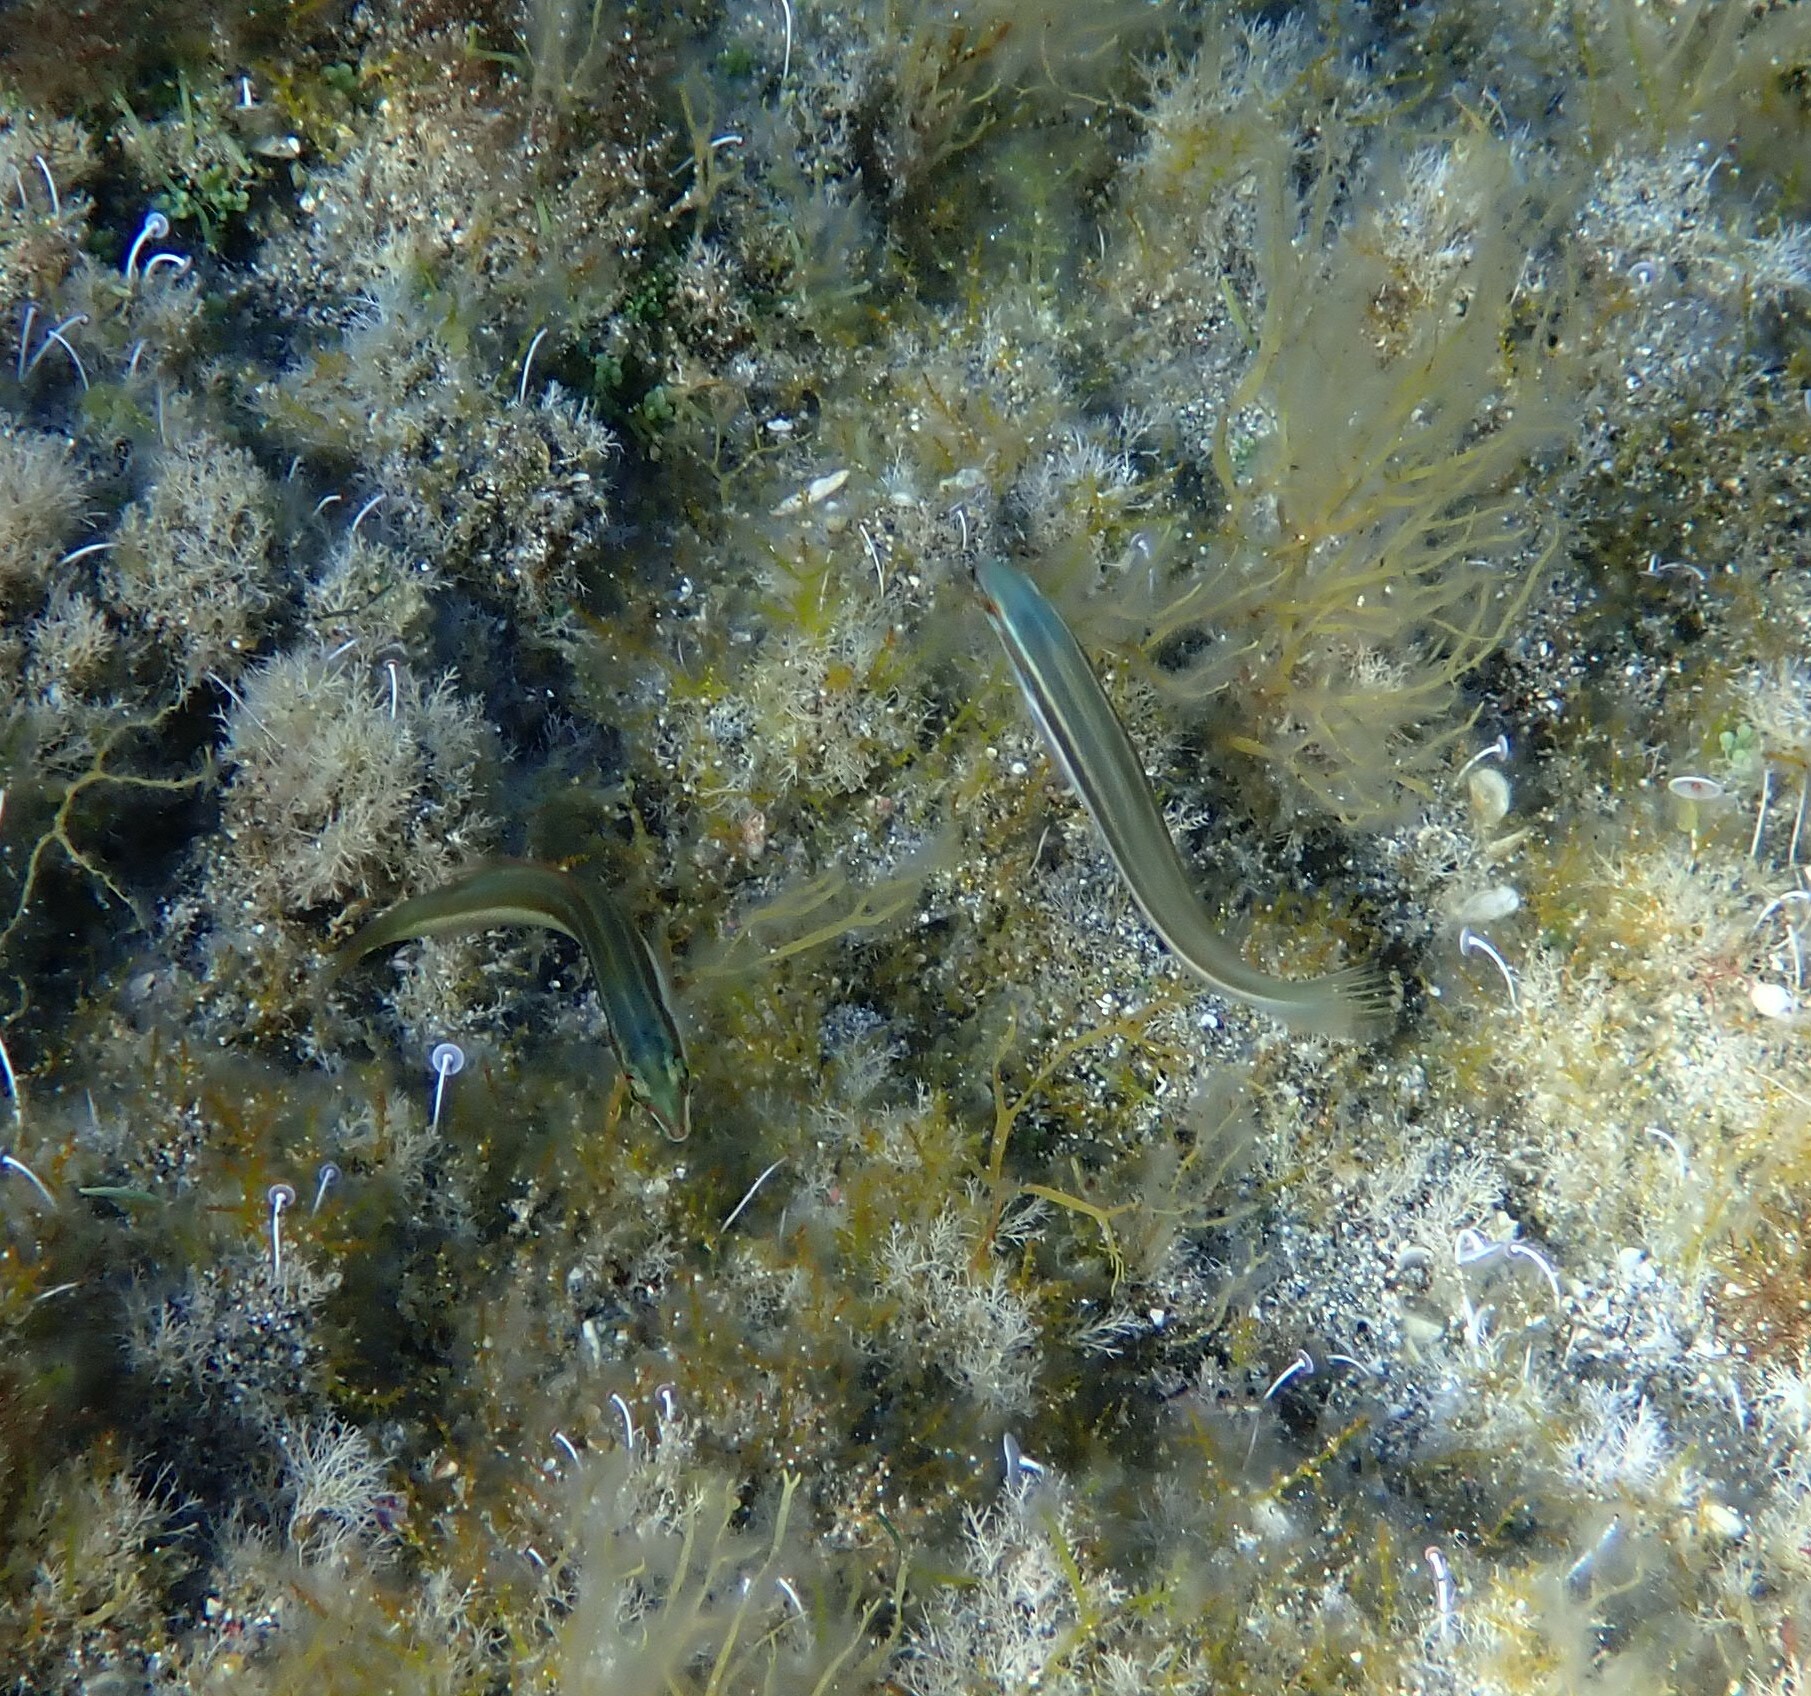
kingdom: Animalia
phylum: Chordata
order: Perciformes
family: Labridae
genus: Coris
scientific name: Coris julis
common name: Rainbow wrasse
